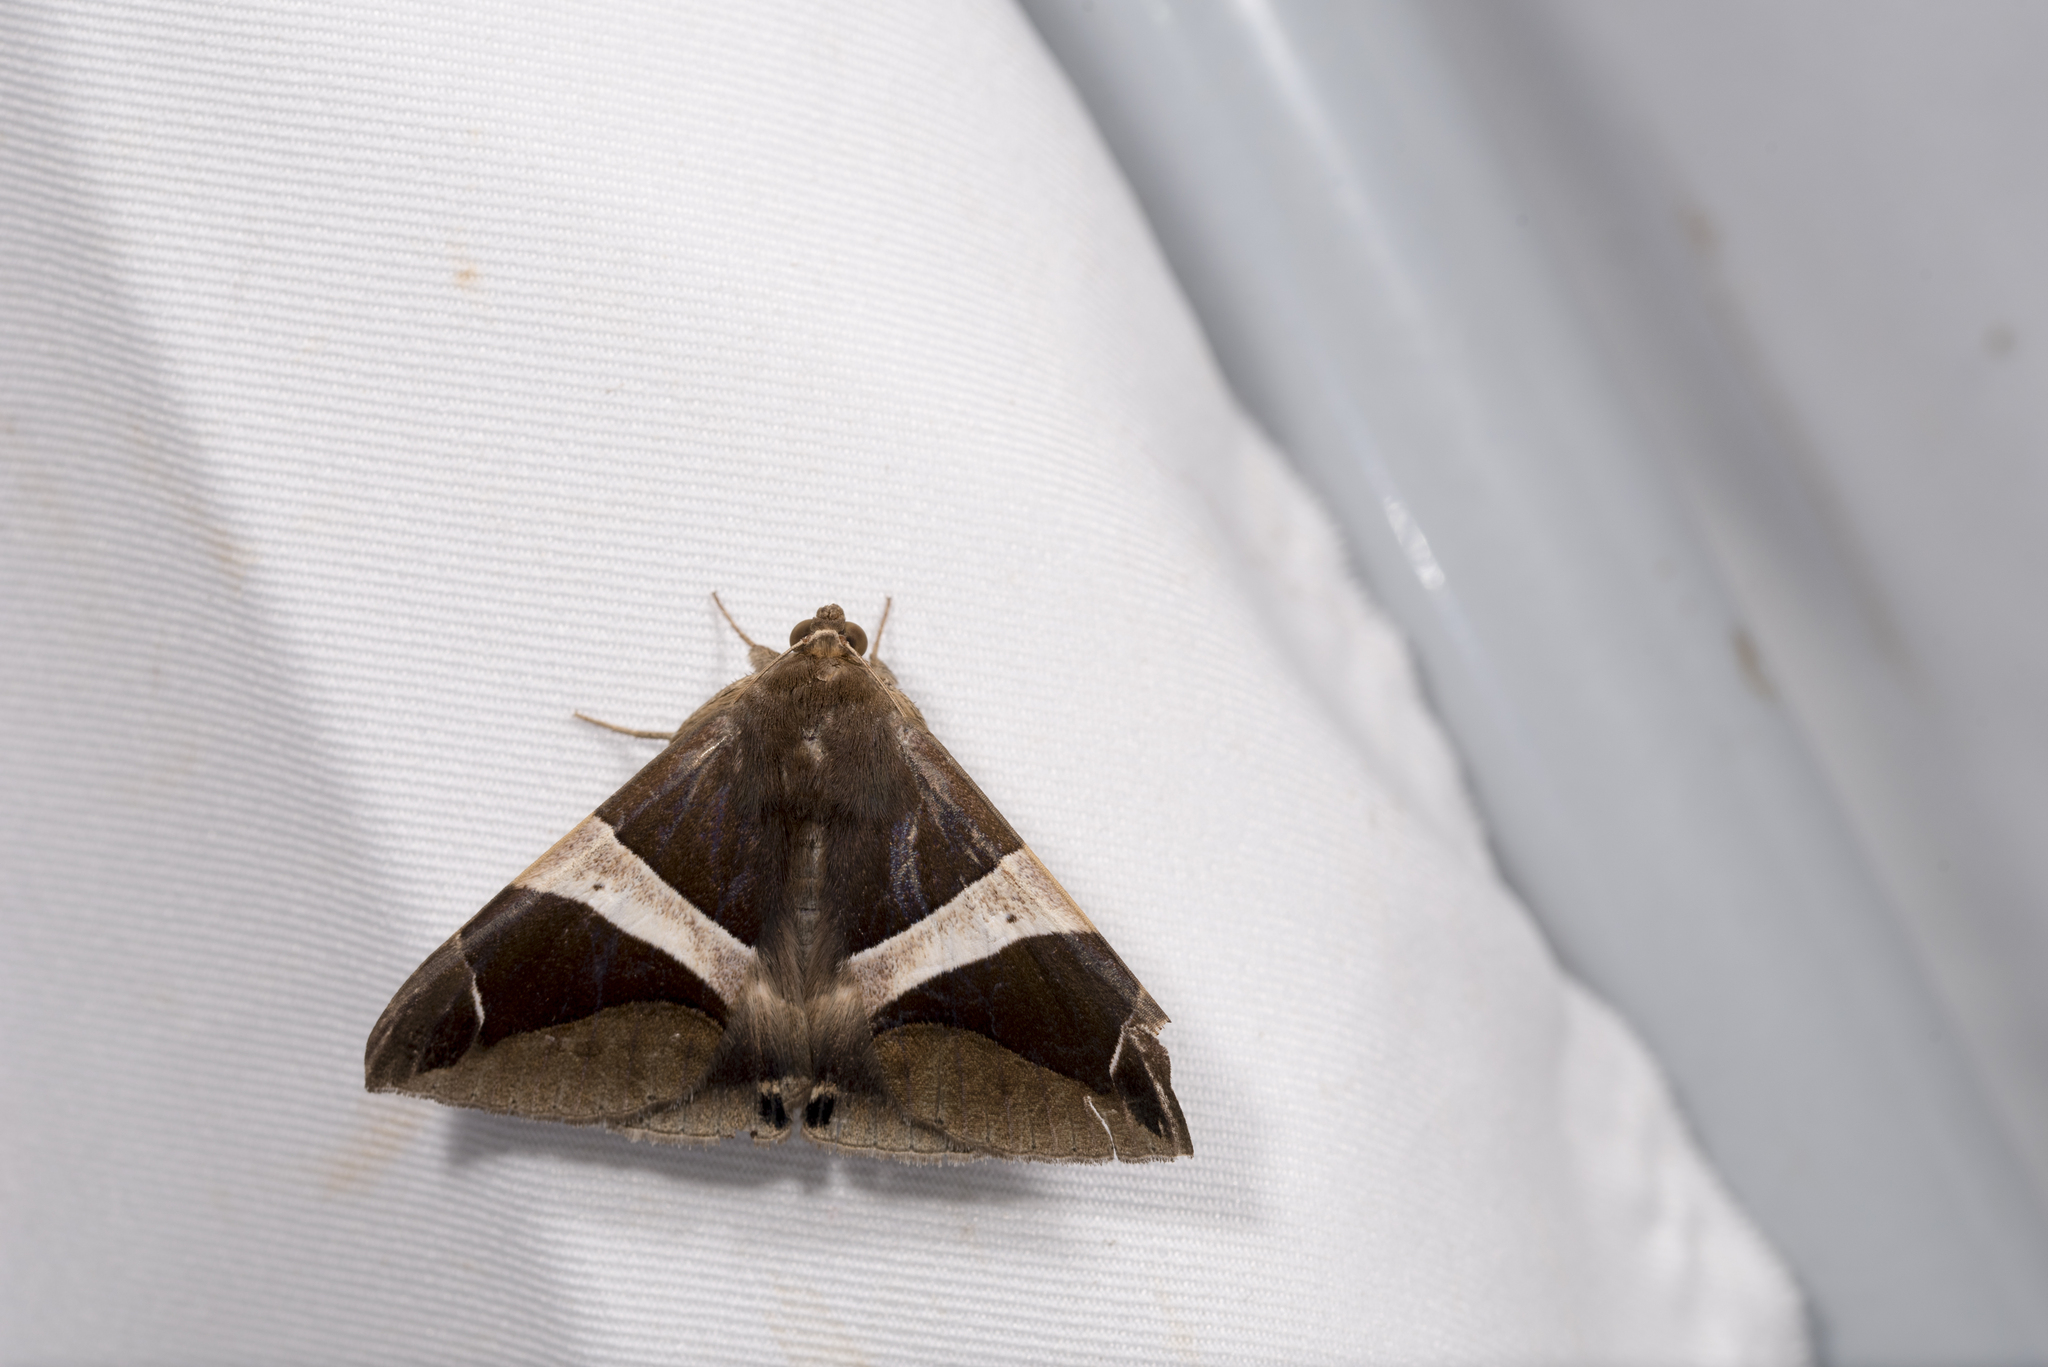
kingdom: Animalia
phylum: Arthropoda
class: Insecta
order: Lepidoptera
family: Erebidae
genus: Dysgonia
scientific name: Dysgonia praetermissa
